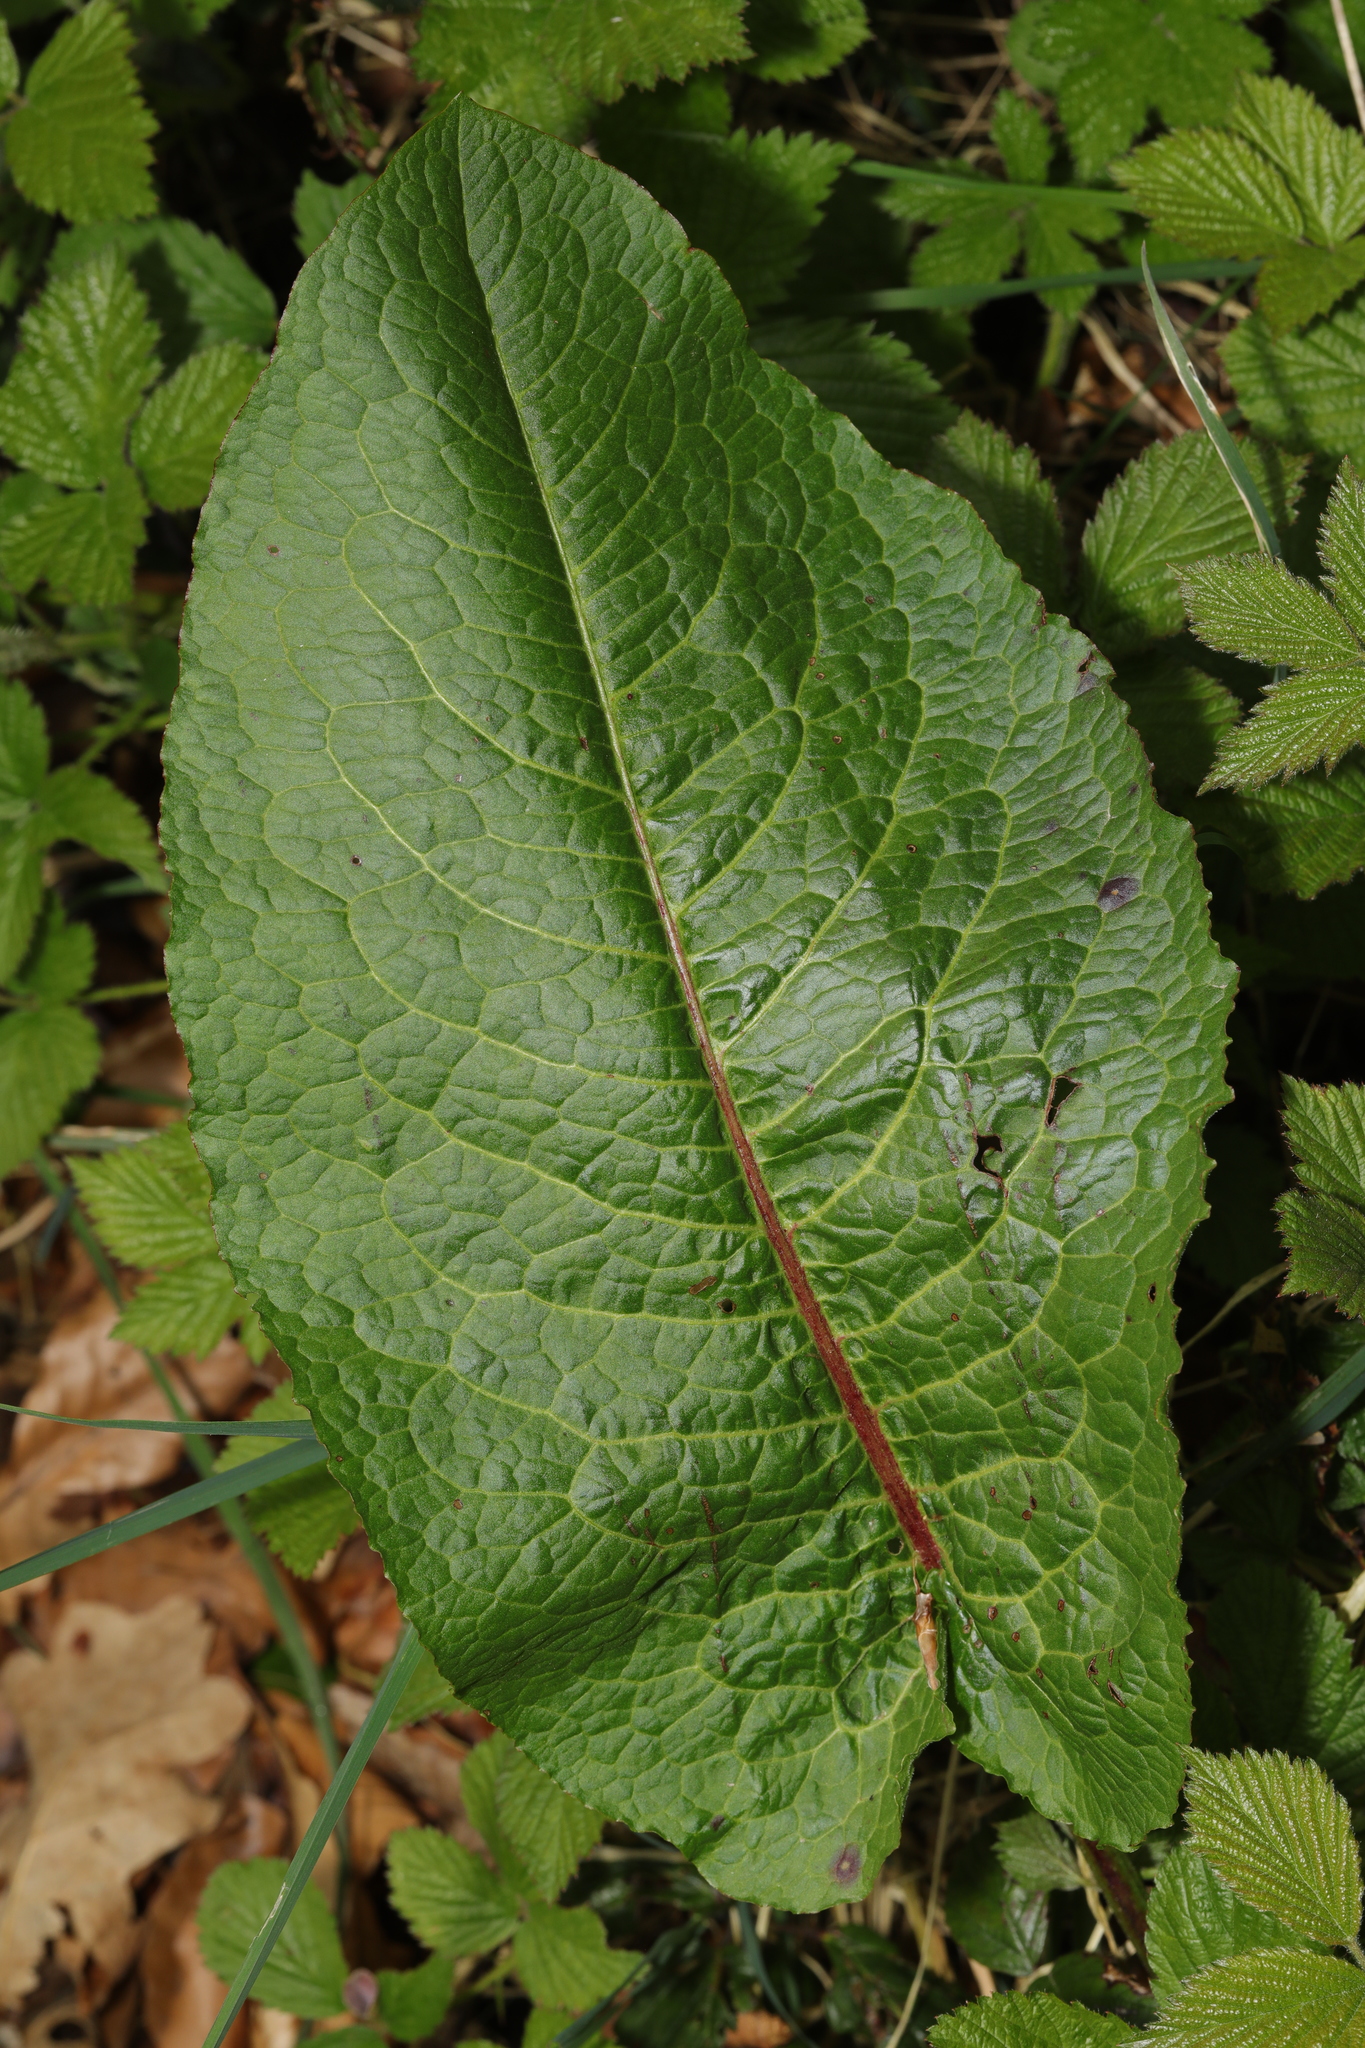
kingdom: Plantae
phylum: Tracheophyta
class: Magnoliopsida
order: Caryophyllales
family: Polygonaceae
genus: Rumex
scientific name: Rumex obtusifolius
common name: Bitter dock
